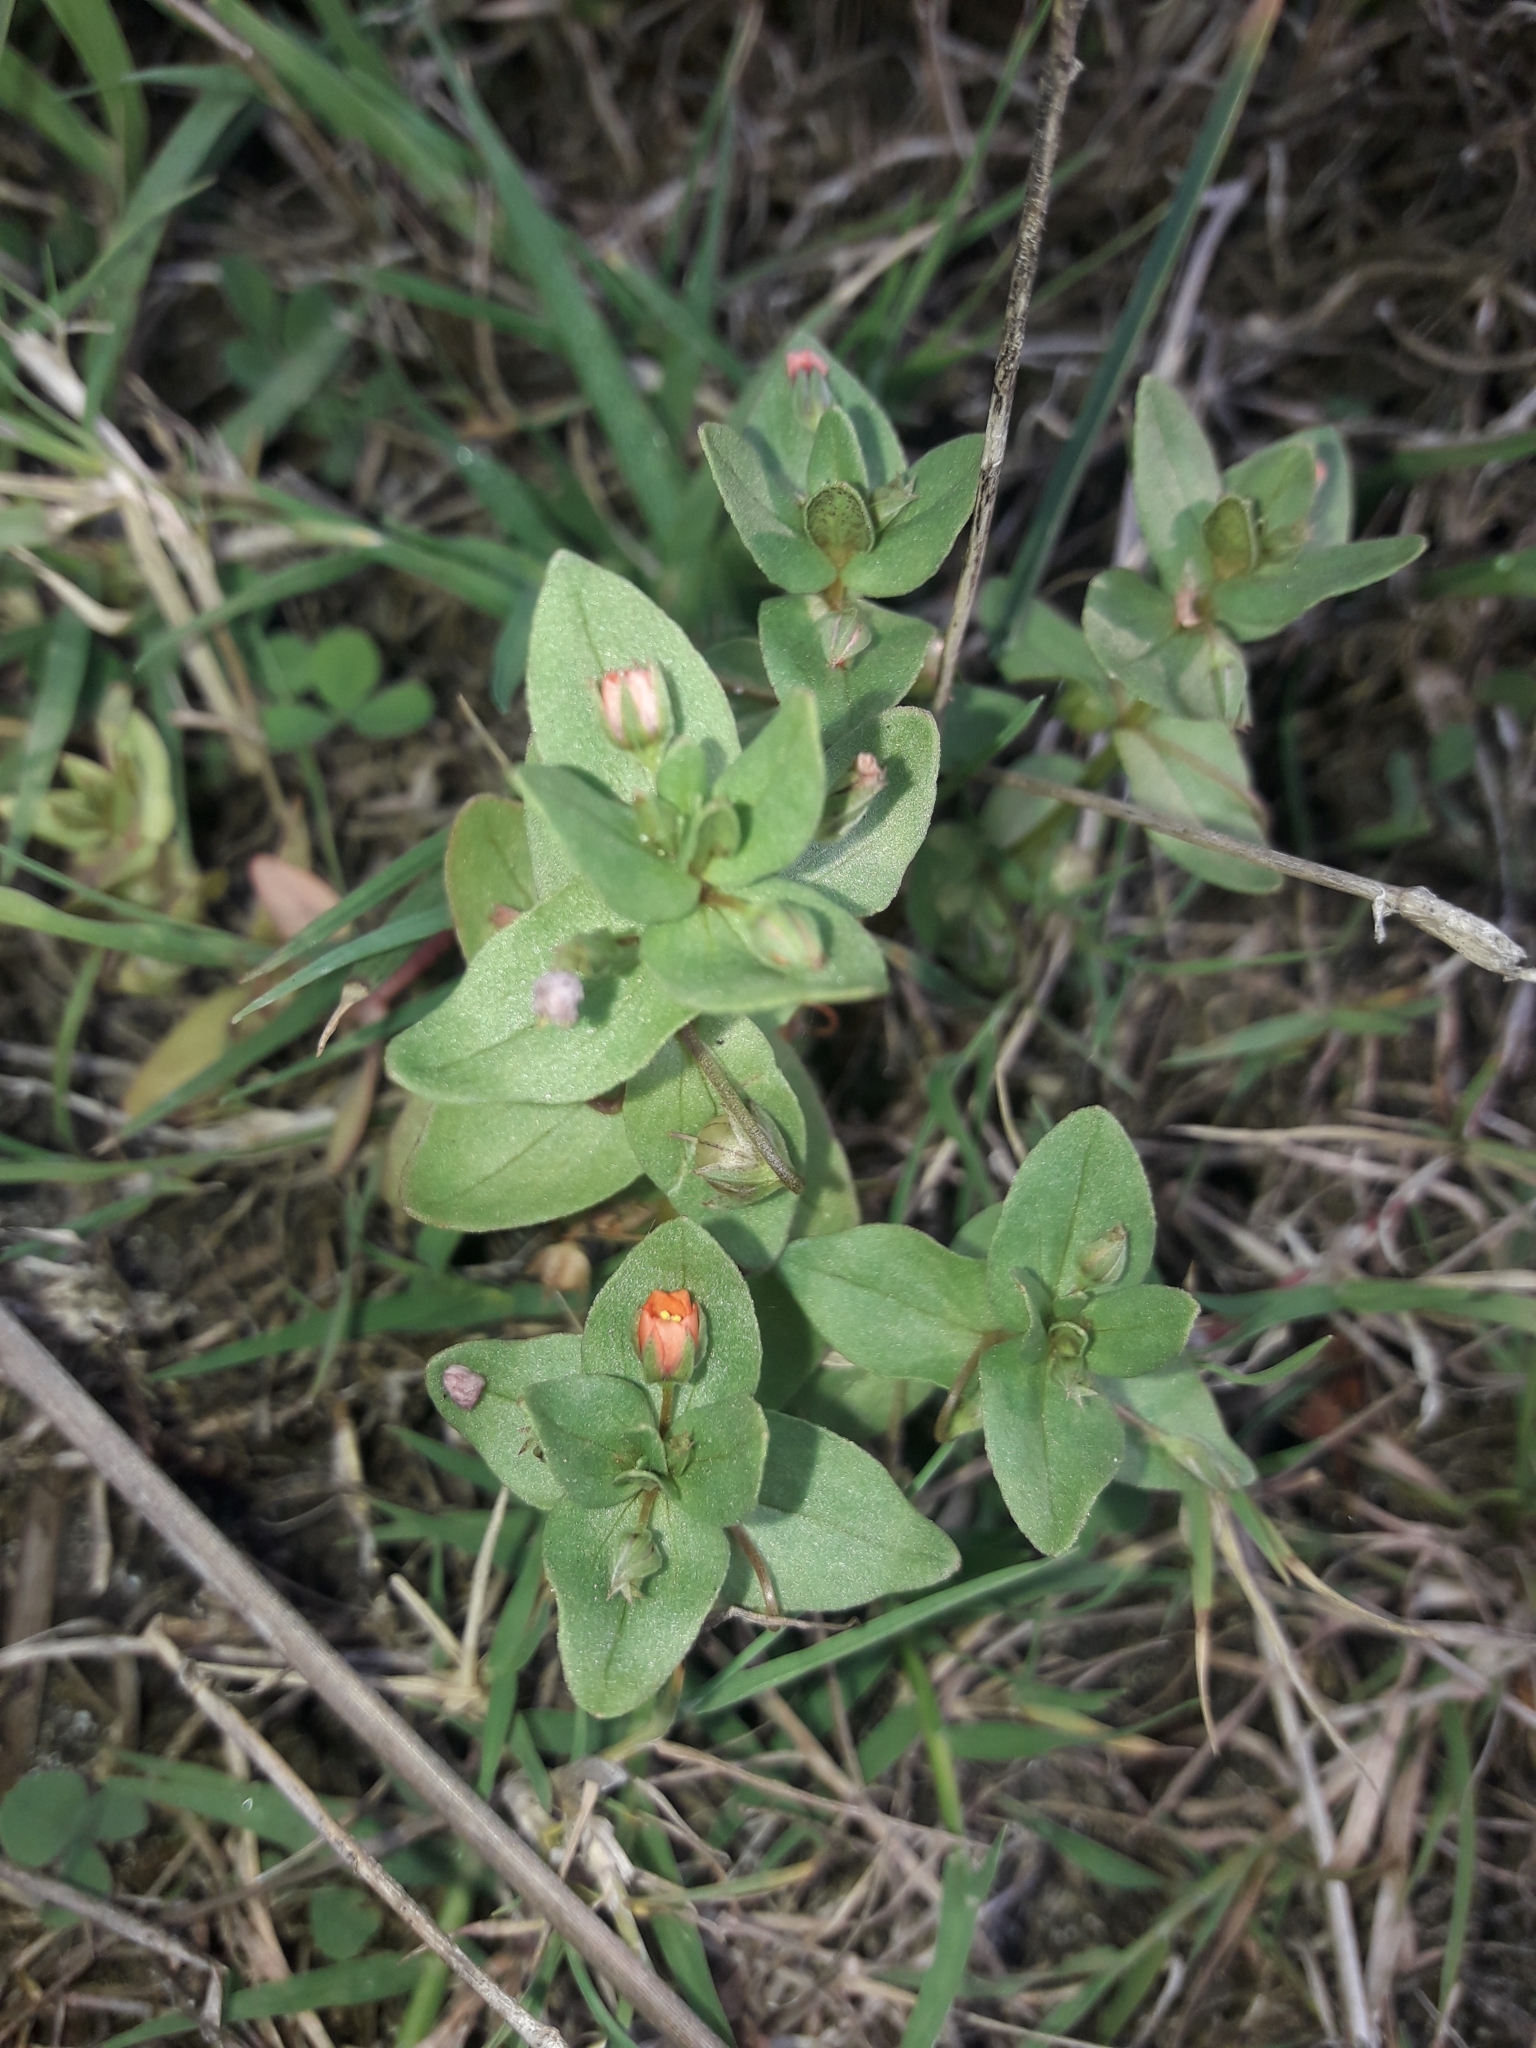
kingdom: Plantae
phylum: Tracheophyta
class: Magnoliopsida
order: Ericales
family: Primulaceae
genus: Lysimachia
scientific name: Lysimachia arvensis
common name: Scarlet pimpernel
